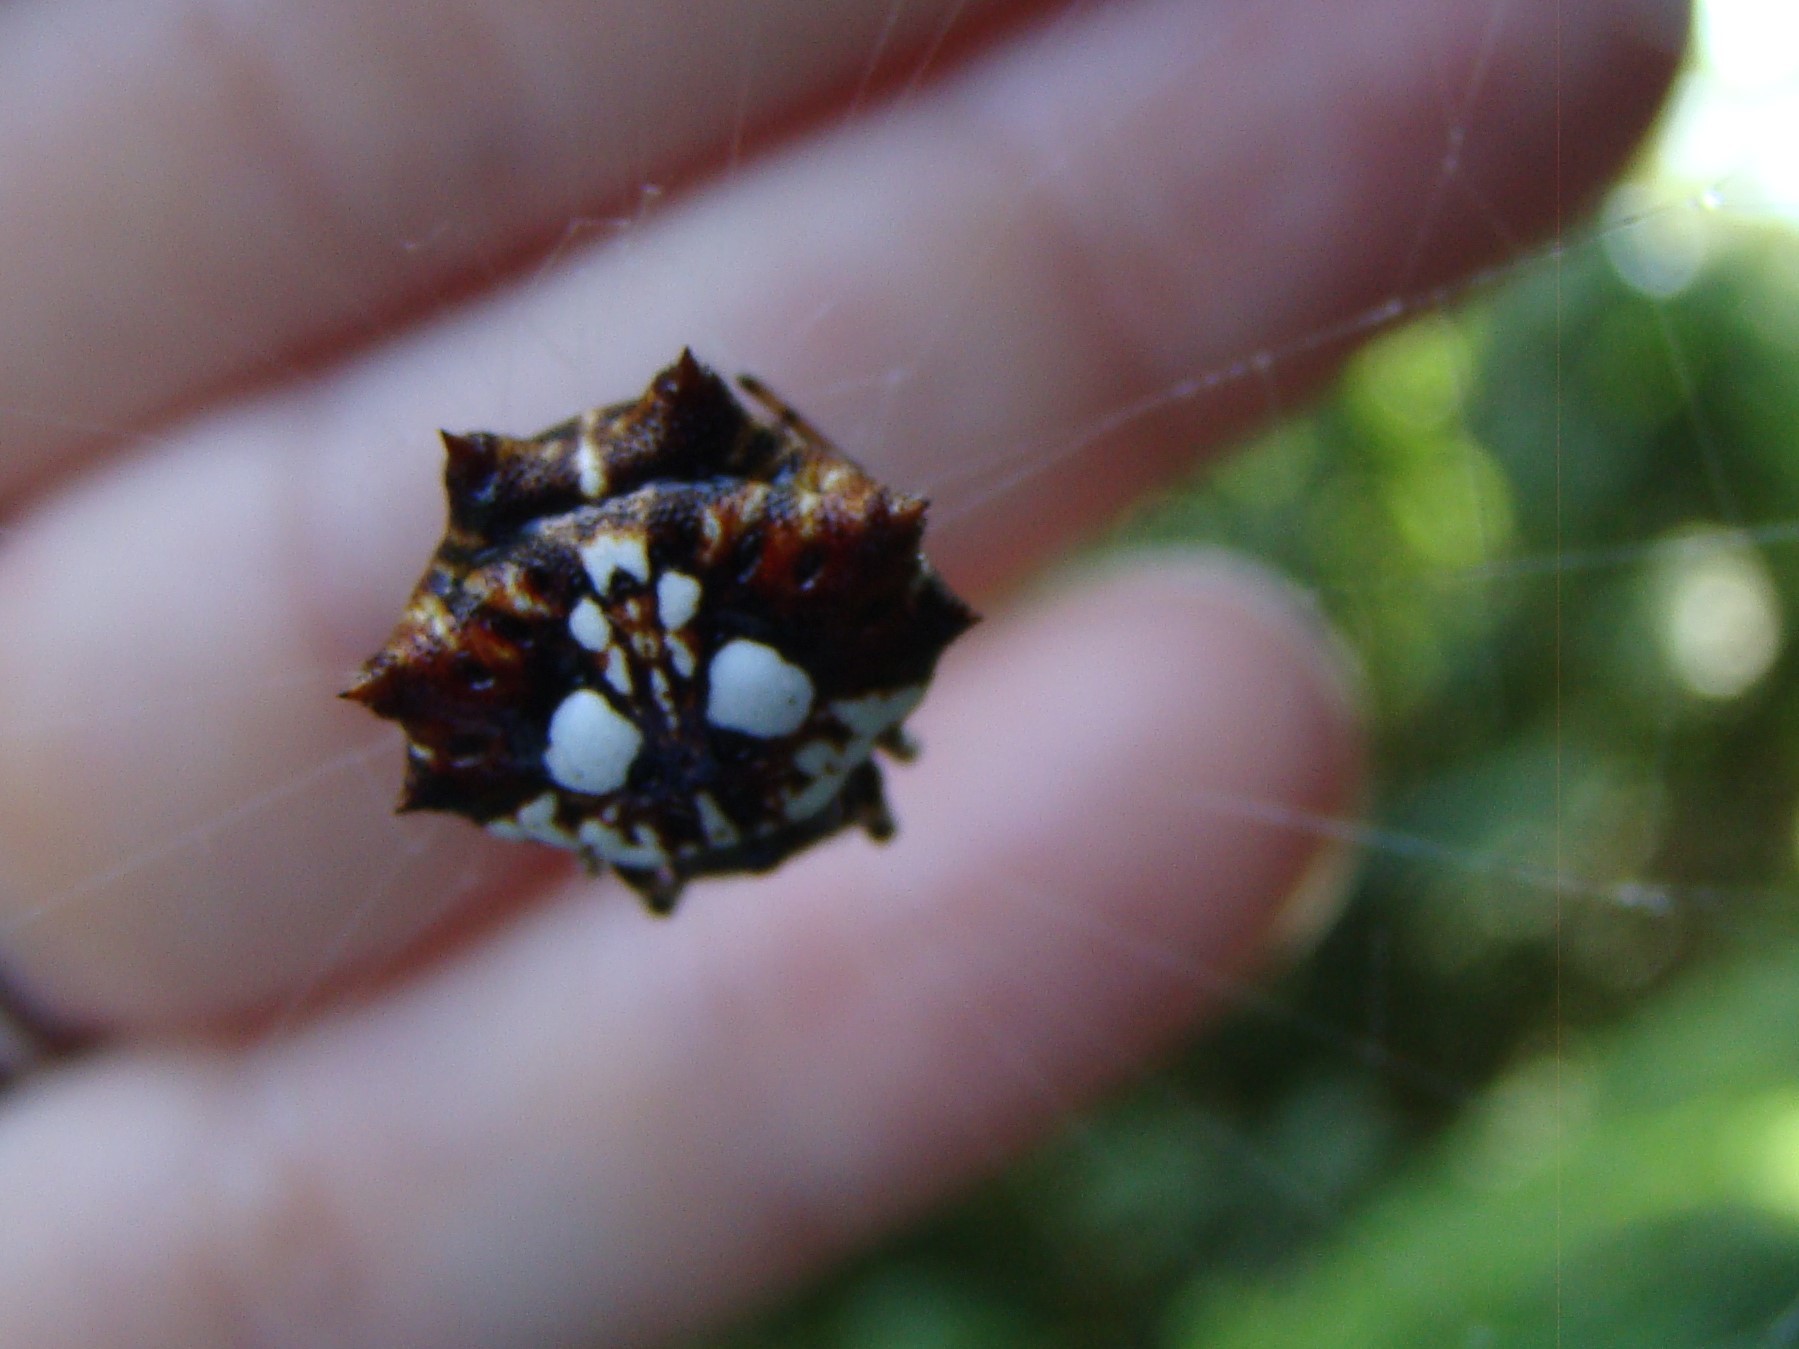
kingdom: Animalia
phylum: Arthropoda
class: Arachnida
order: Araneae
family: Araneidae
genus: Thelacantha
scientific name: Thelacantha brevispina
